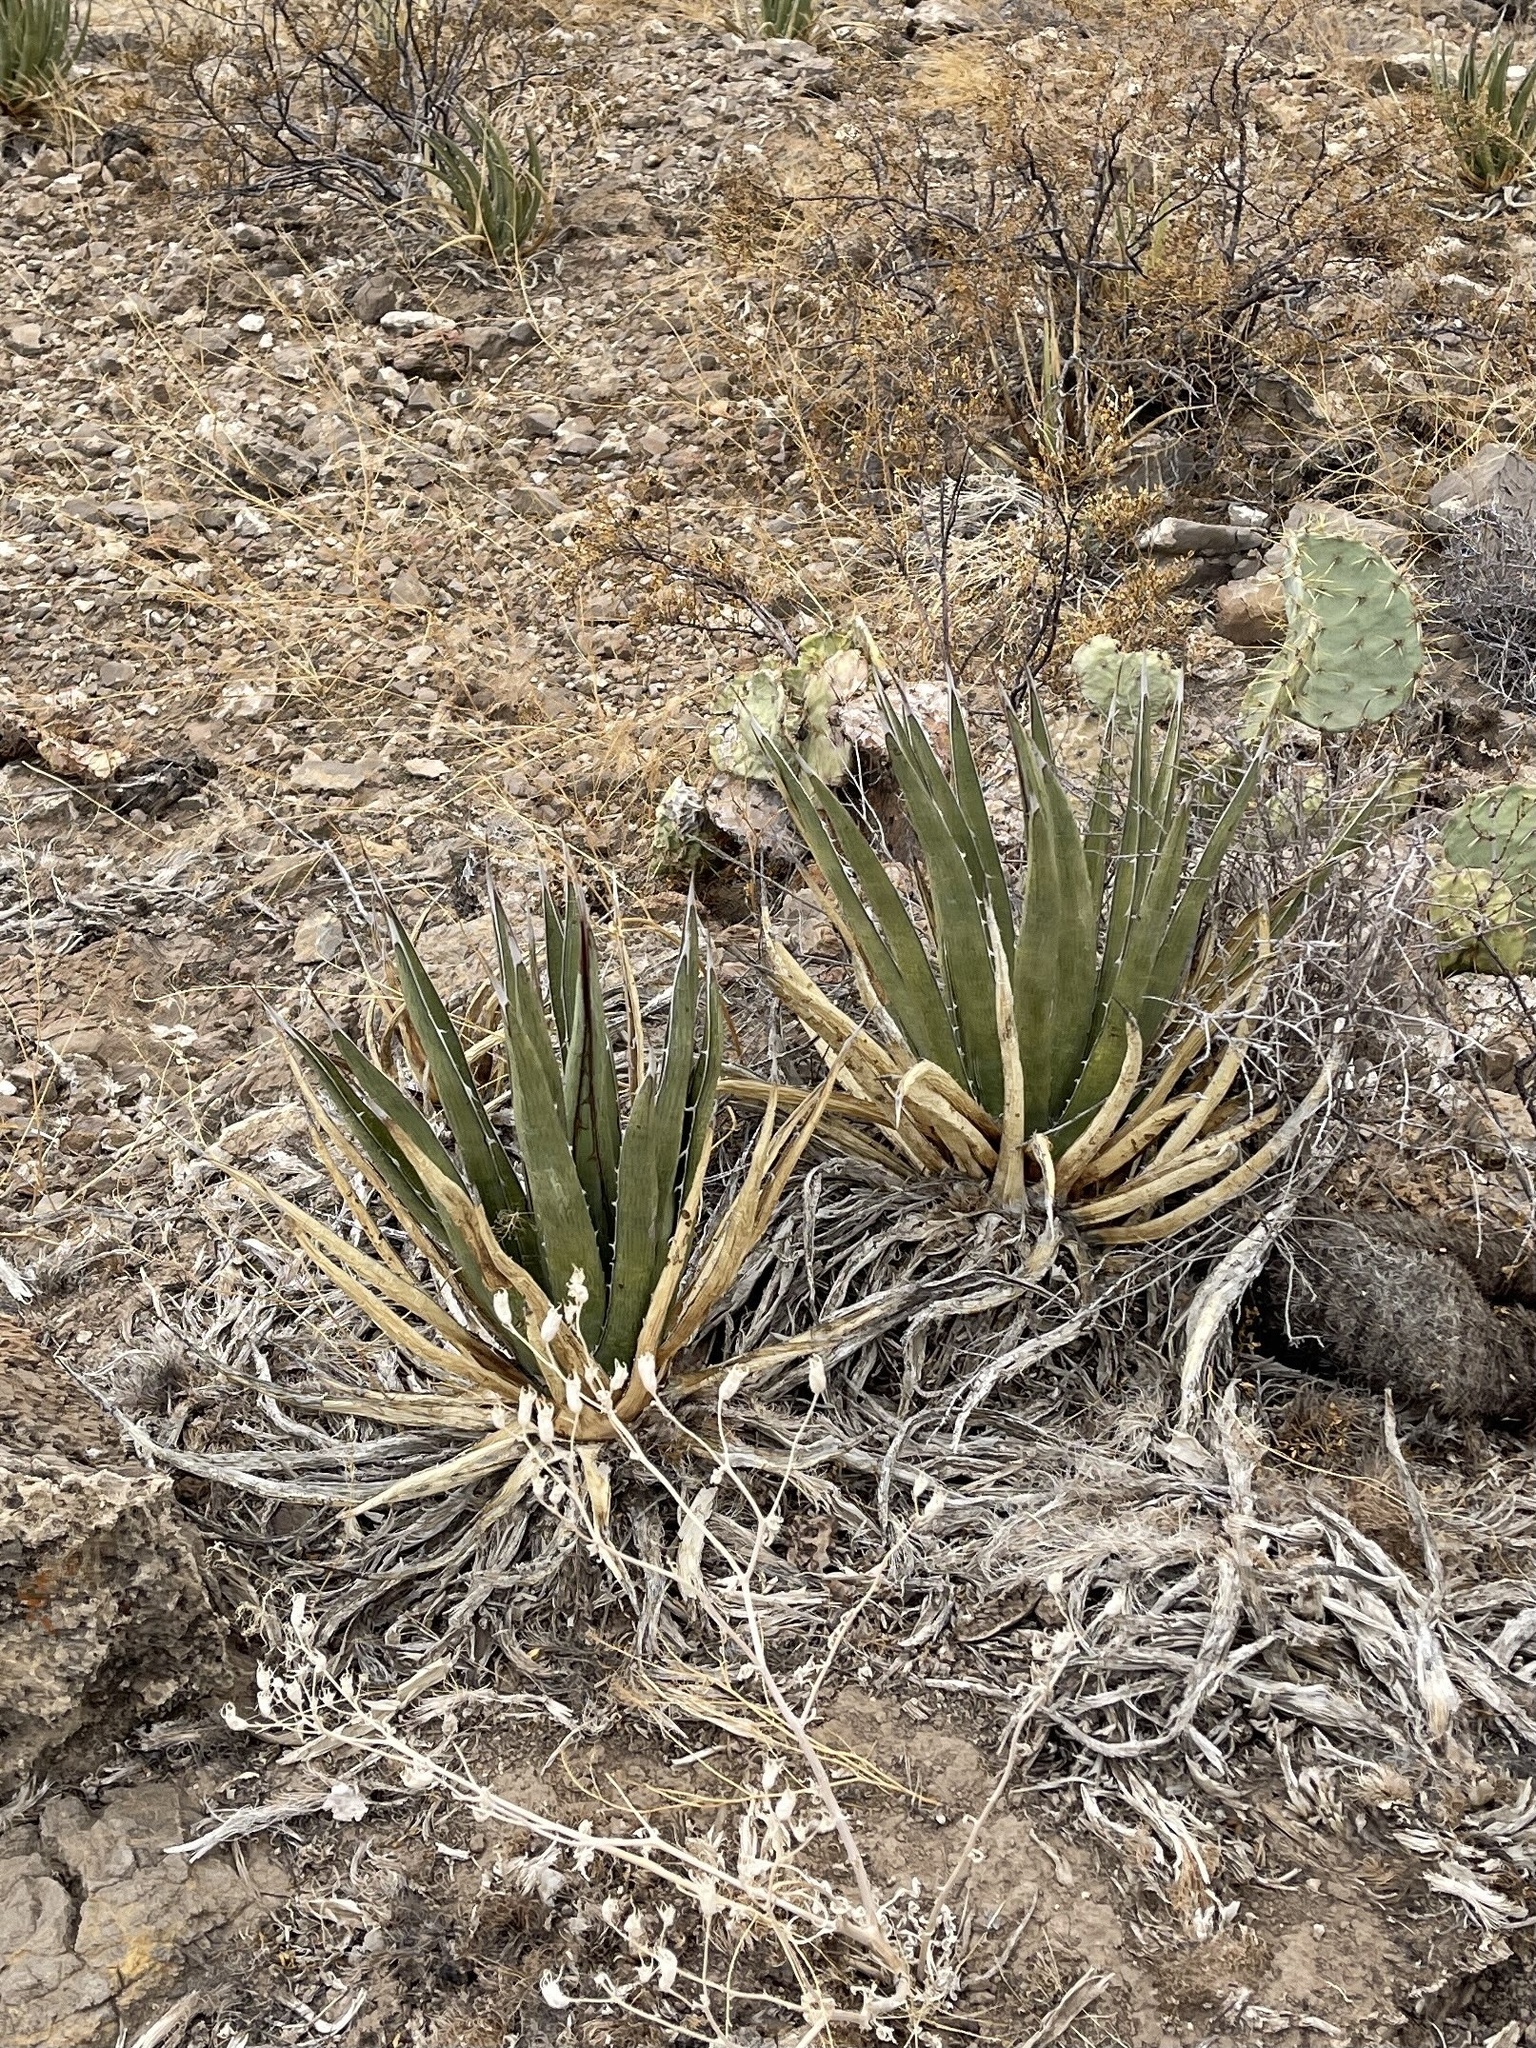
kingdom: Plantae
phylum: Tracheophyta
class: Liliopsida
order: Asparagales
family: Asparagaceae
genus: Agave
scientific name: Agave lechuguilla
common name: Lecheguilla agave
